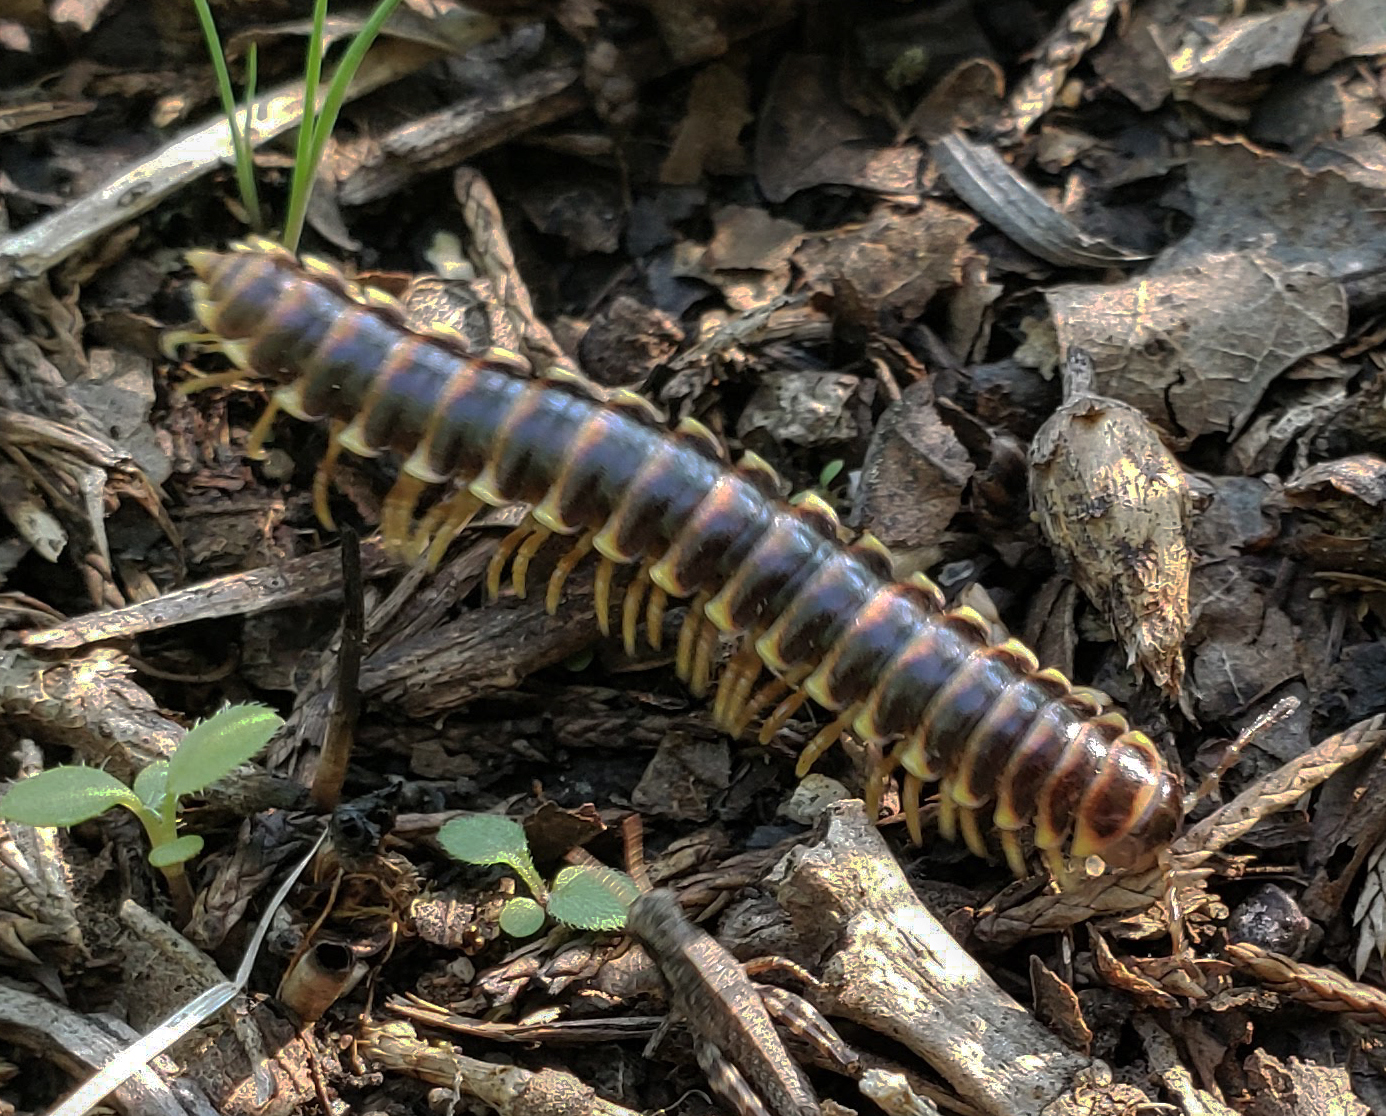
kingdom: Animalia
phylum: Arthropoda
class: Diplopoda
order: Polydesmida
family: Xystodesmidae
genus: Pleuroloma
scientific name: Pleuroloma flavipes
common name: Yellow-legged pleuroloma
